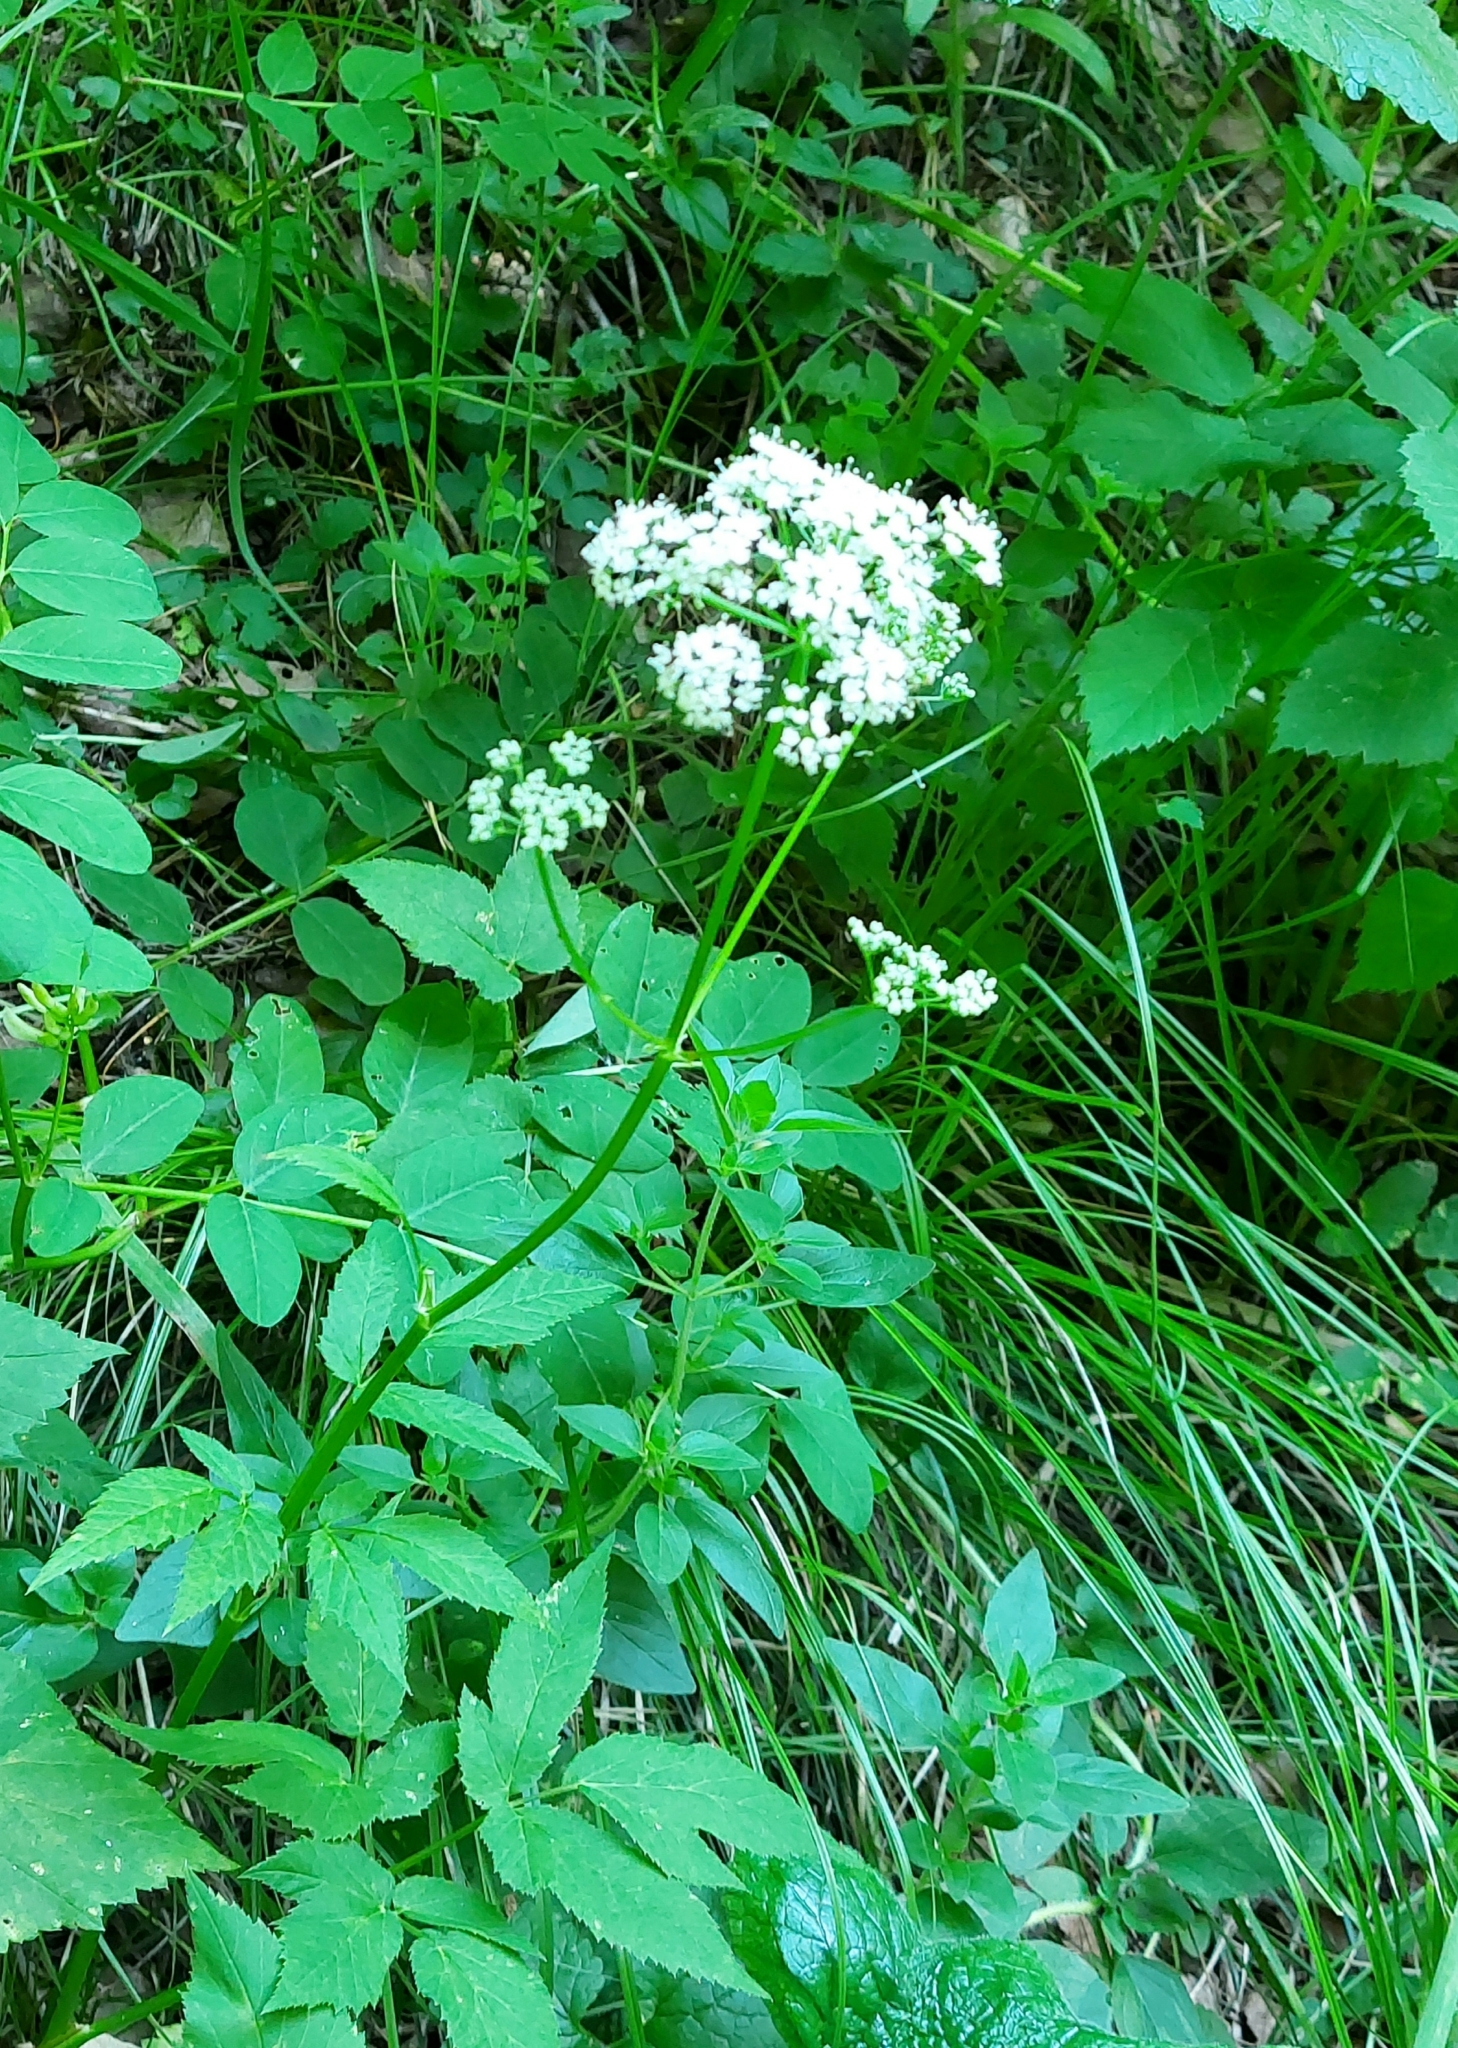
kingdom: Plantae
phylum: Tracheophyta
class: Magnoliopsida
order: Apiales
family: Apiaceae
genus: Aegopodium
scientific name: Aegopodium podagraria
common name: Ground-elder
